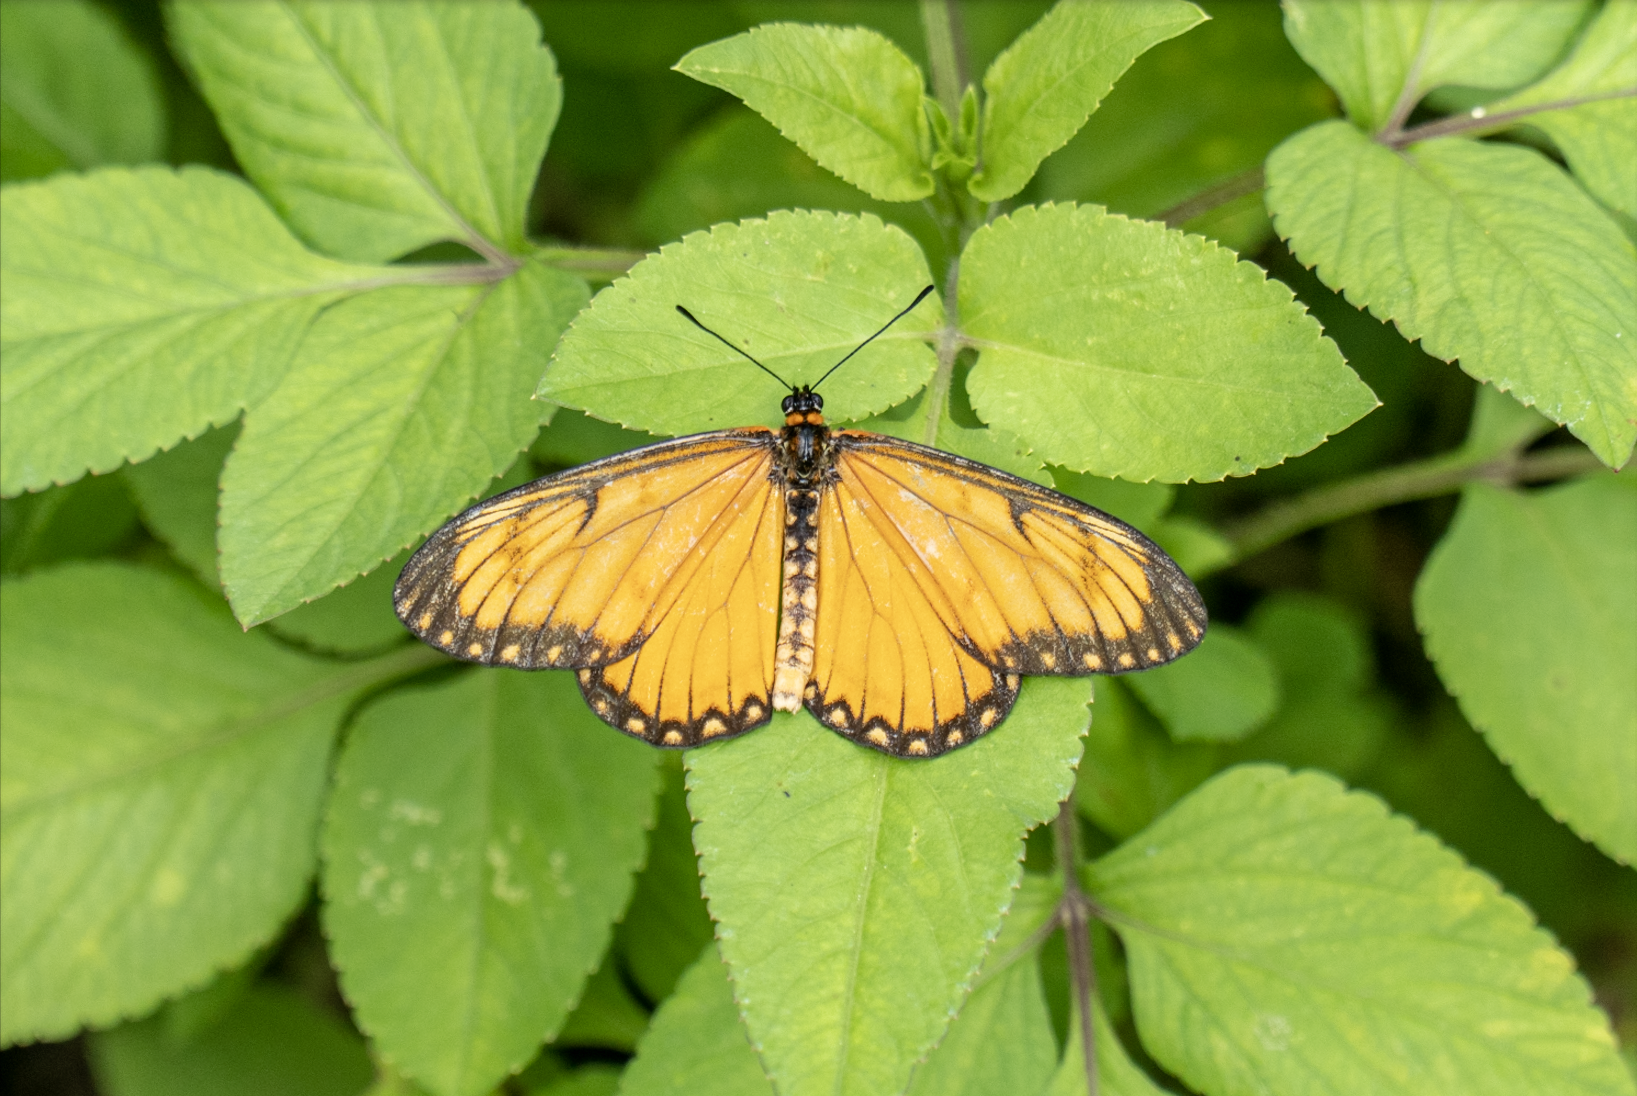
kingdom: Animalia
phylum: Arthropoda
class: Insecta
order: Lepidoptera
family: Nymphalidae
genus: Acraea
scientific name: Acraea Telchinia issoria
